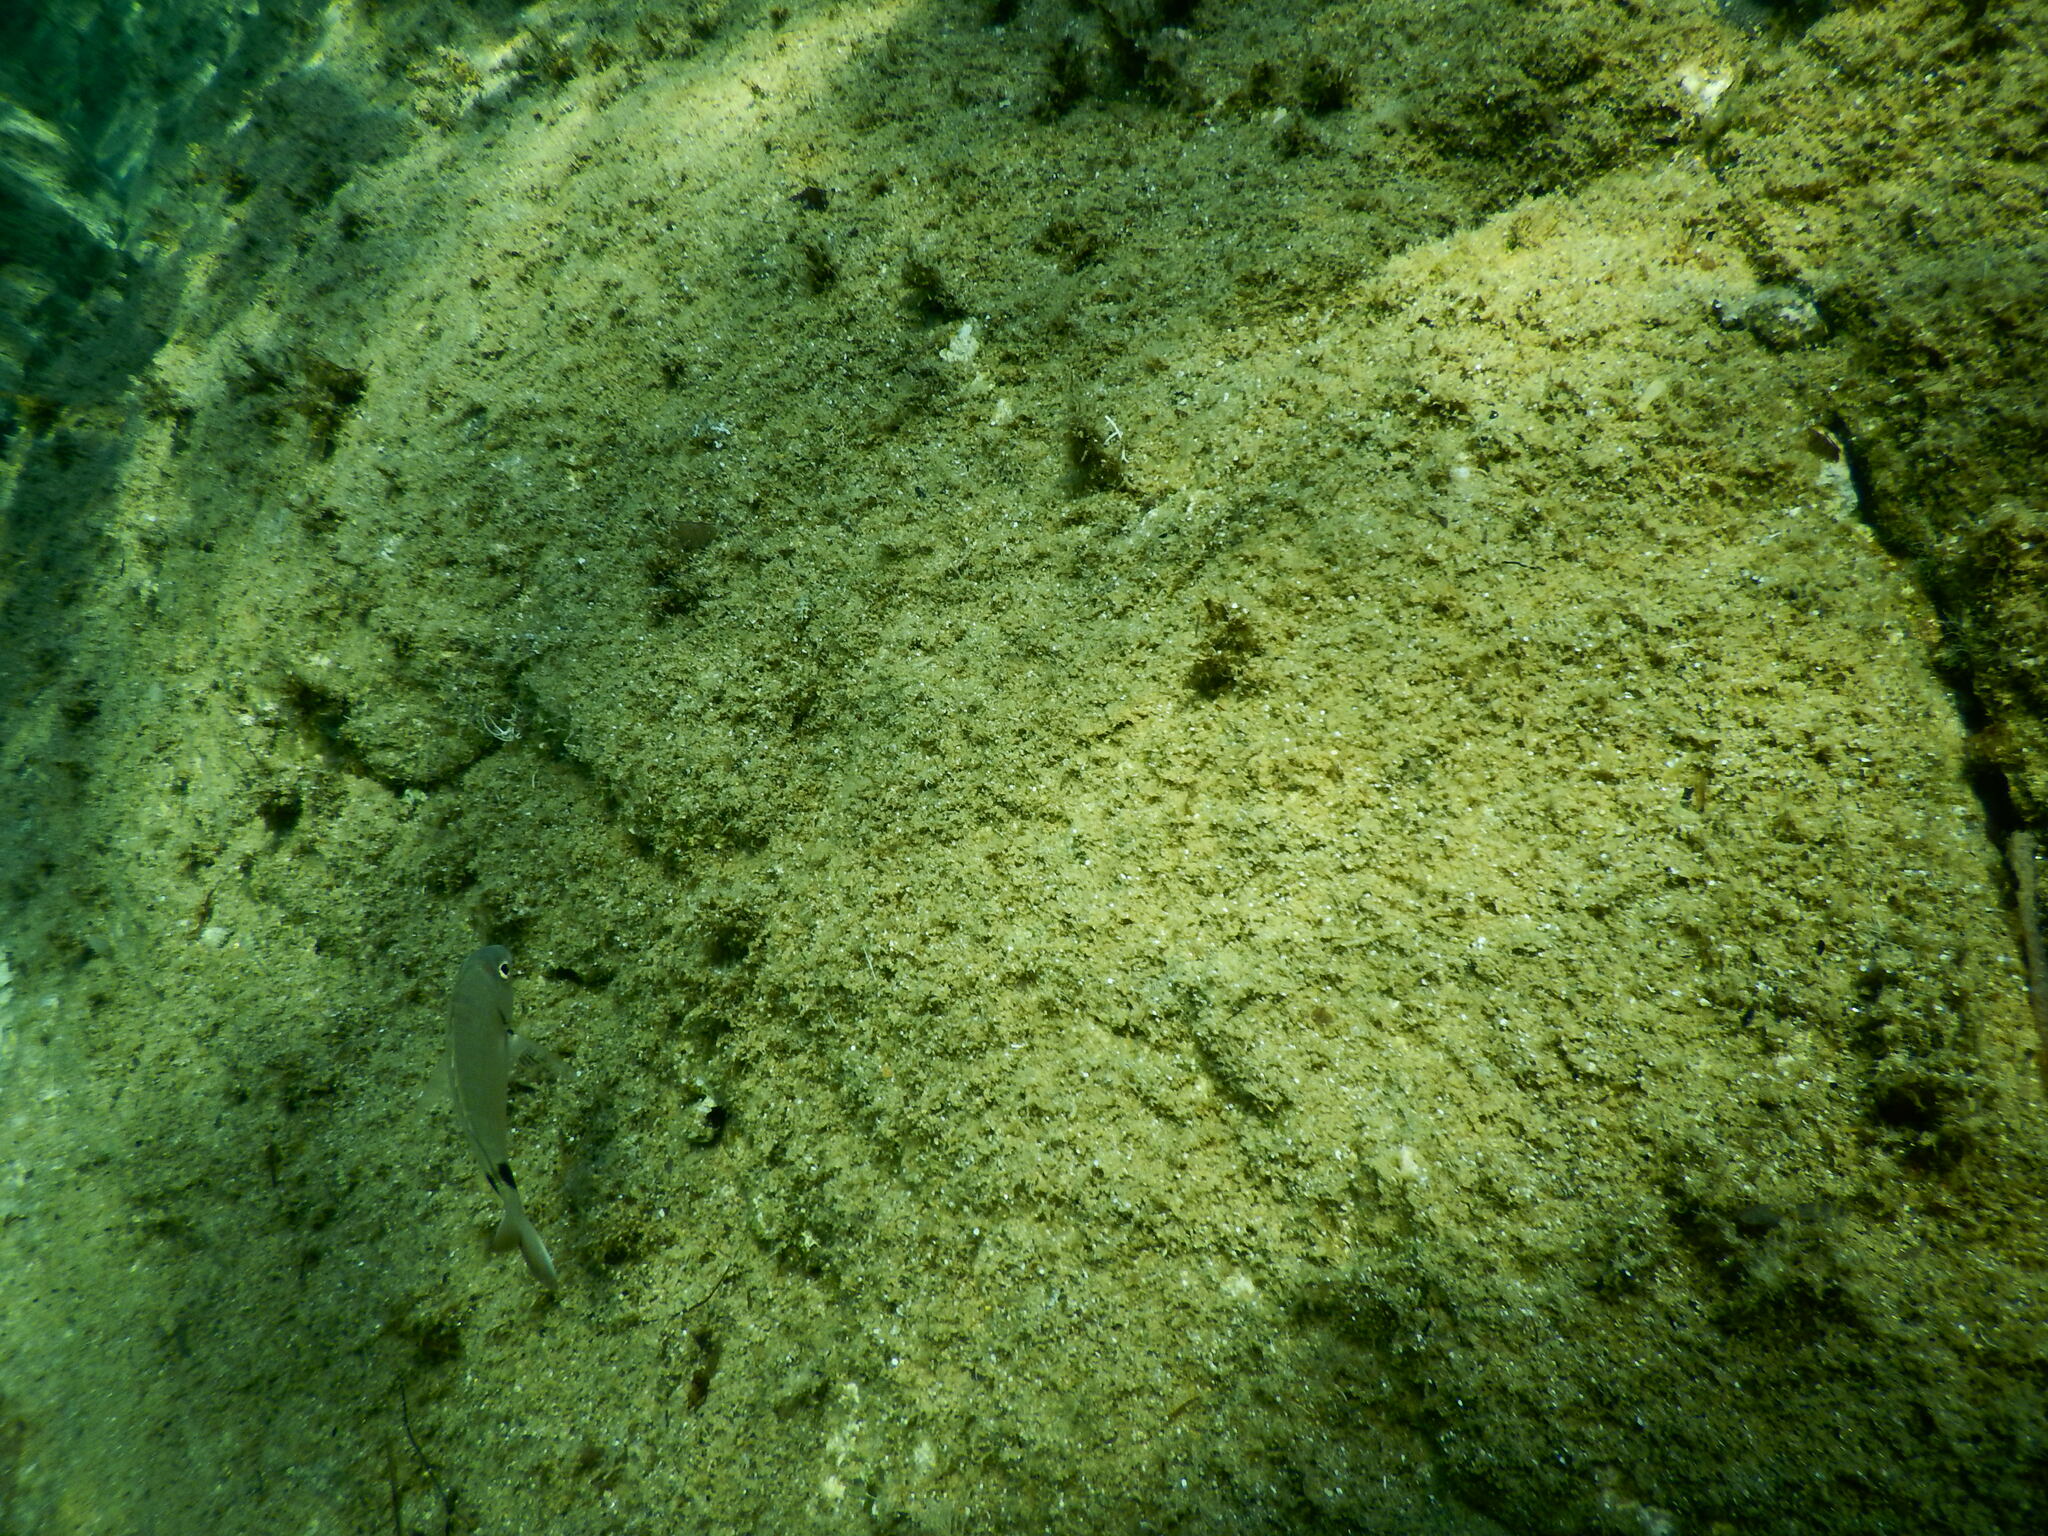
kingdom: Animalia
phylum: Chordata
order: Perciformes
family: Sparidae
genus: Diplodus
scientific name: Diplodus sargus
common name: White seabream
